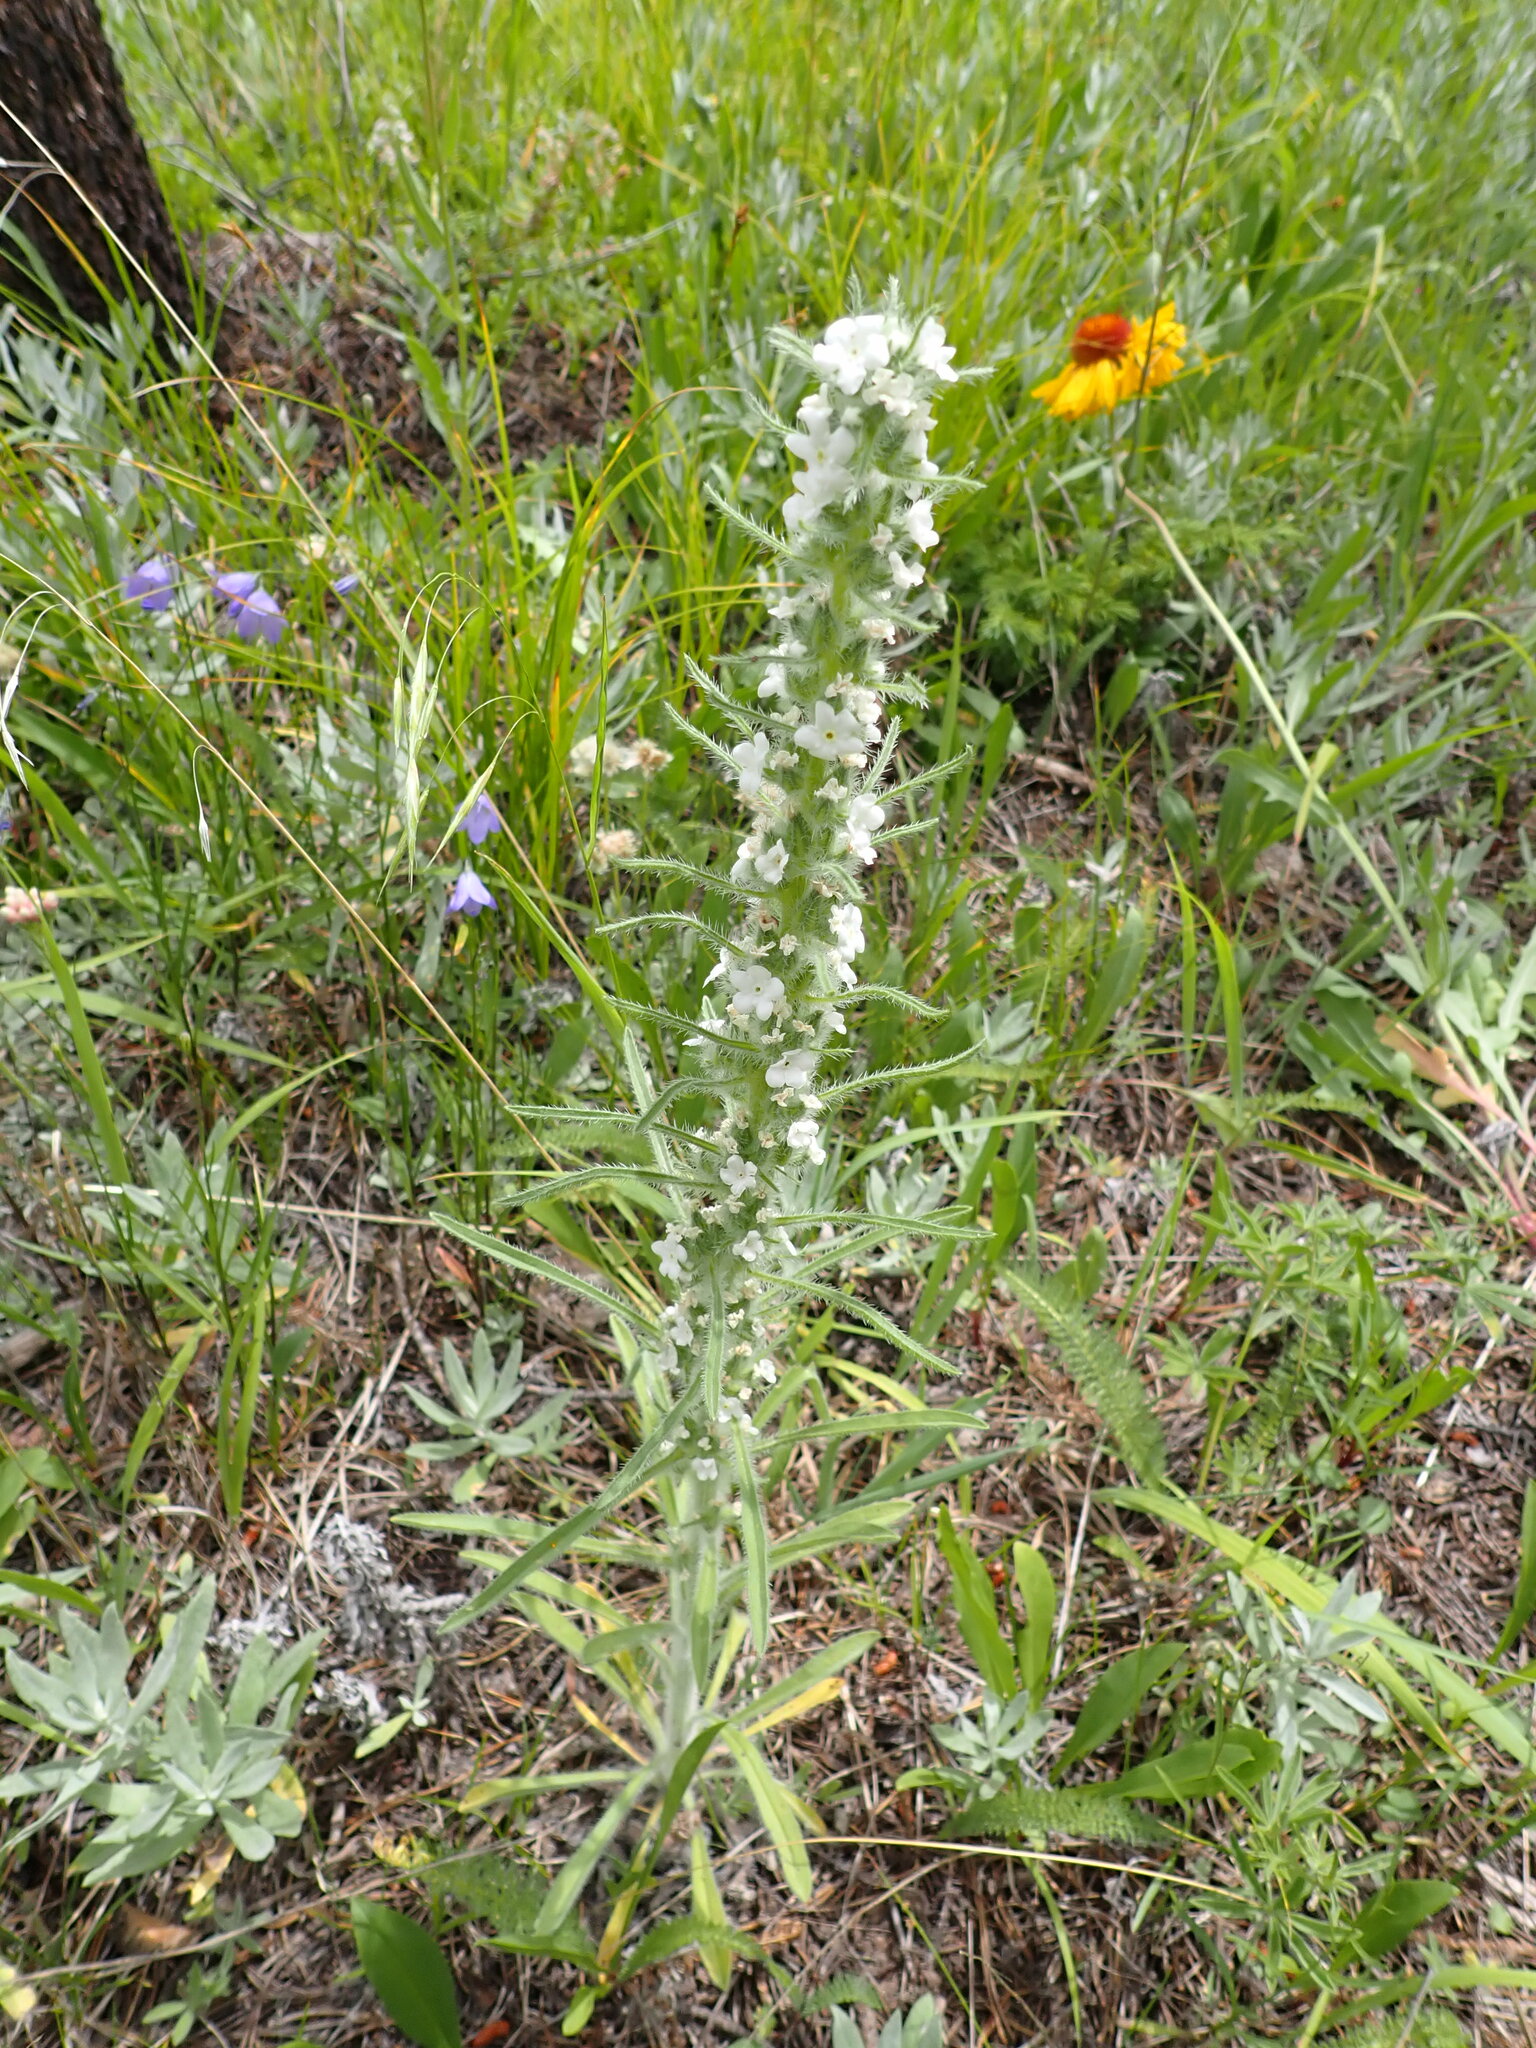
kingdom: Plantae
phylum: Tracheophyta
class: Magnoliopsida
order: Boraginales
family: Boraginaceae
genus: Oreocarya
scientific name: Oreocarya virgata
